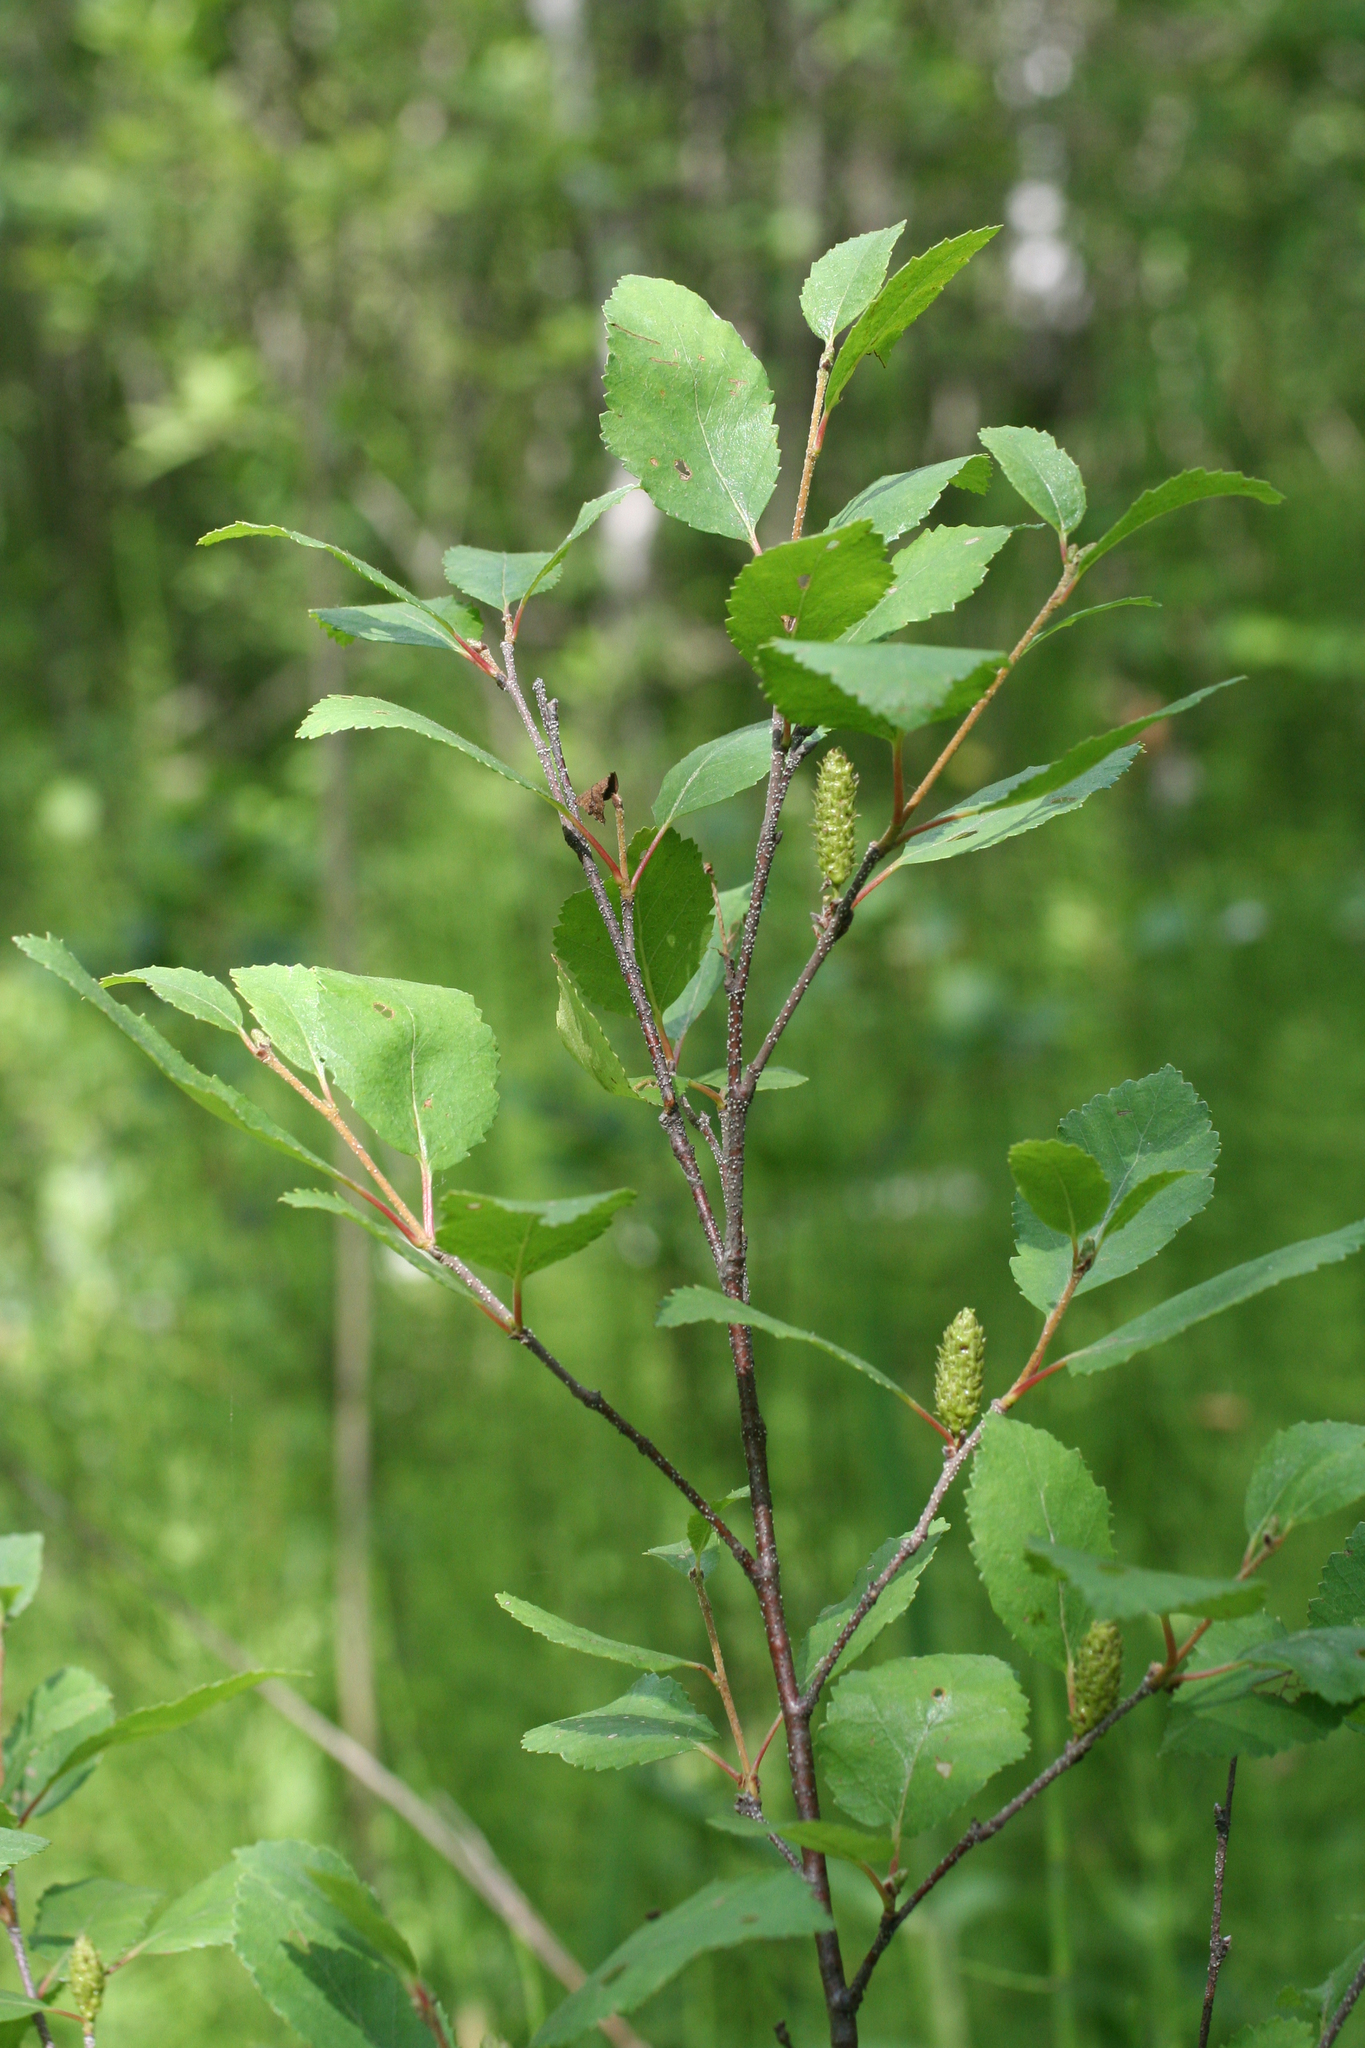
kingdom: Plantae
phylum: Tracheophyta
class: Magnoliopsida
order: Fagales
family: Betulaceae
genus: Betula
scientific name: Betula fruticosa
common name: Japanese bog birch
